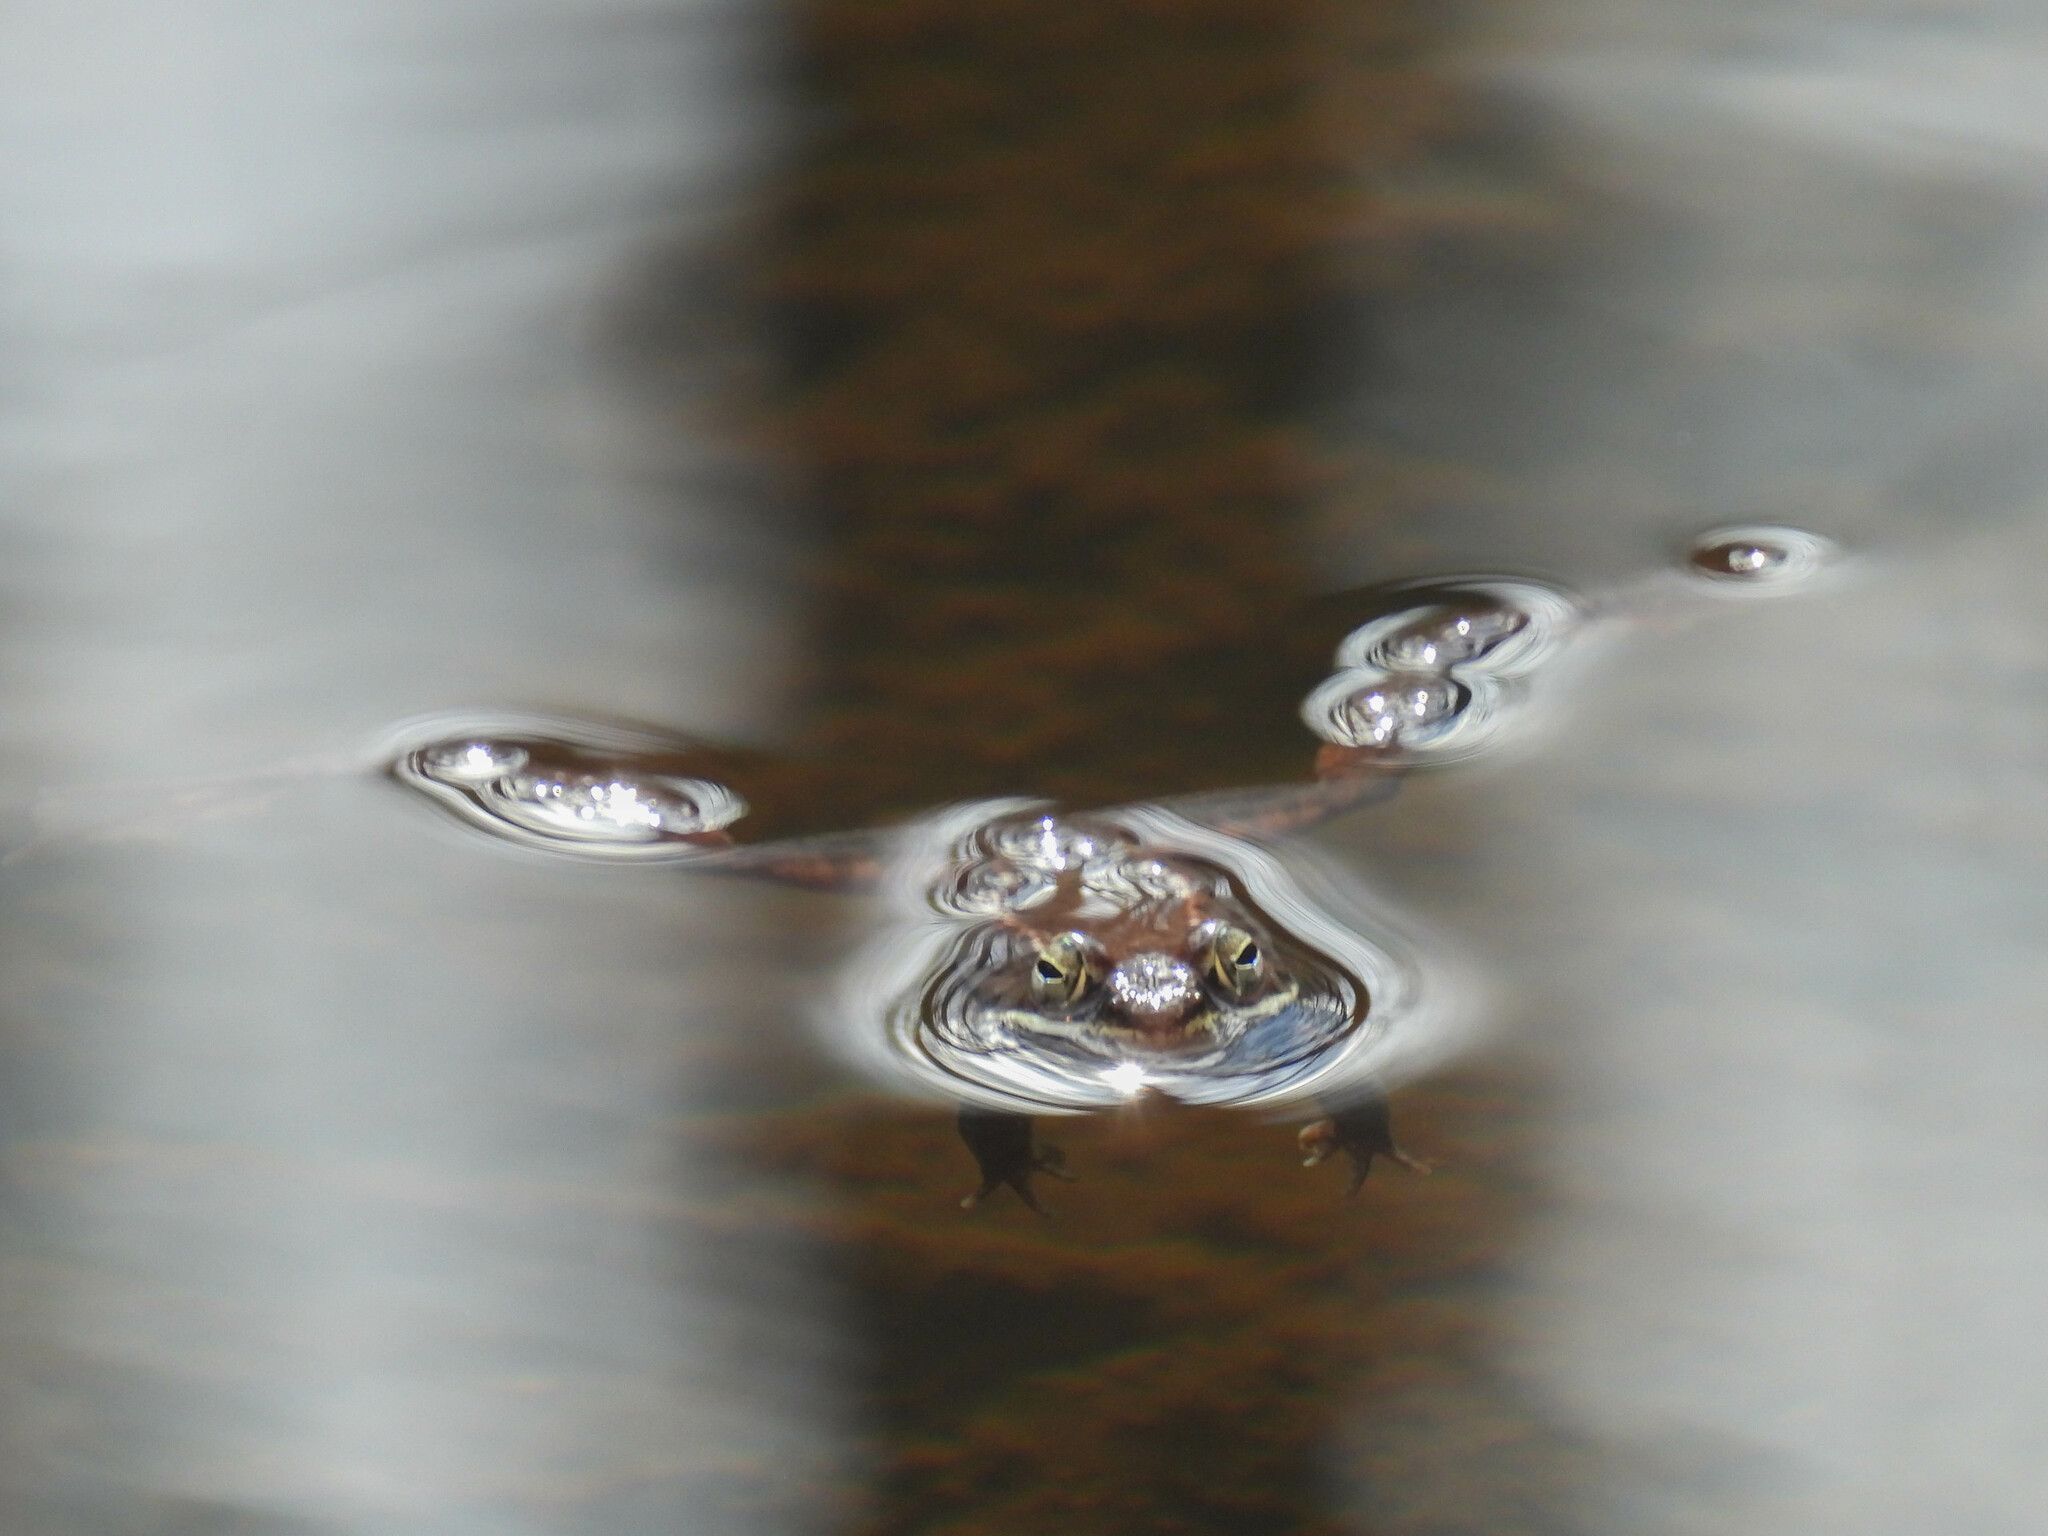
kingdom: Animalia
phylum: Chordata
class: Amphibia
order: Anura
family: Ranidae
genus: Lithobates
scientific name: Lithobates sylvaticus
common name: Wood frog
